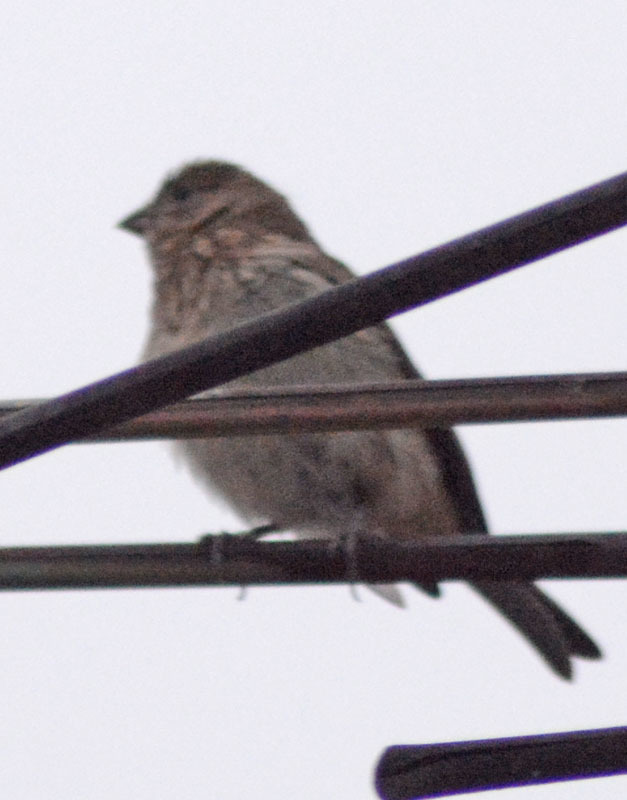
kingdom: Animalia
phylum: Chordata
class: Aves
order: Passeriformes
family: Fringillidae
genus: Haemorhous
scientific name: Haemorhous mexicanus
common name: House finch
